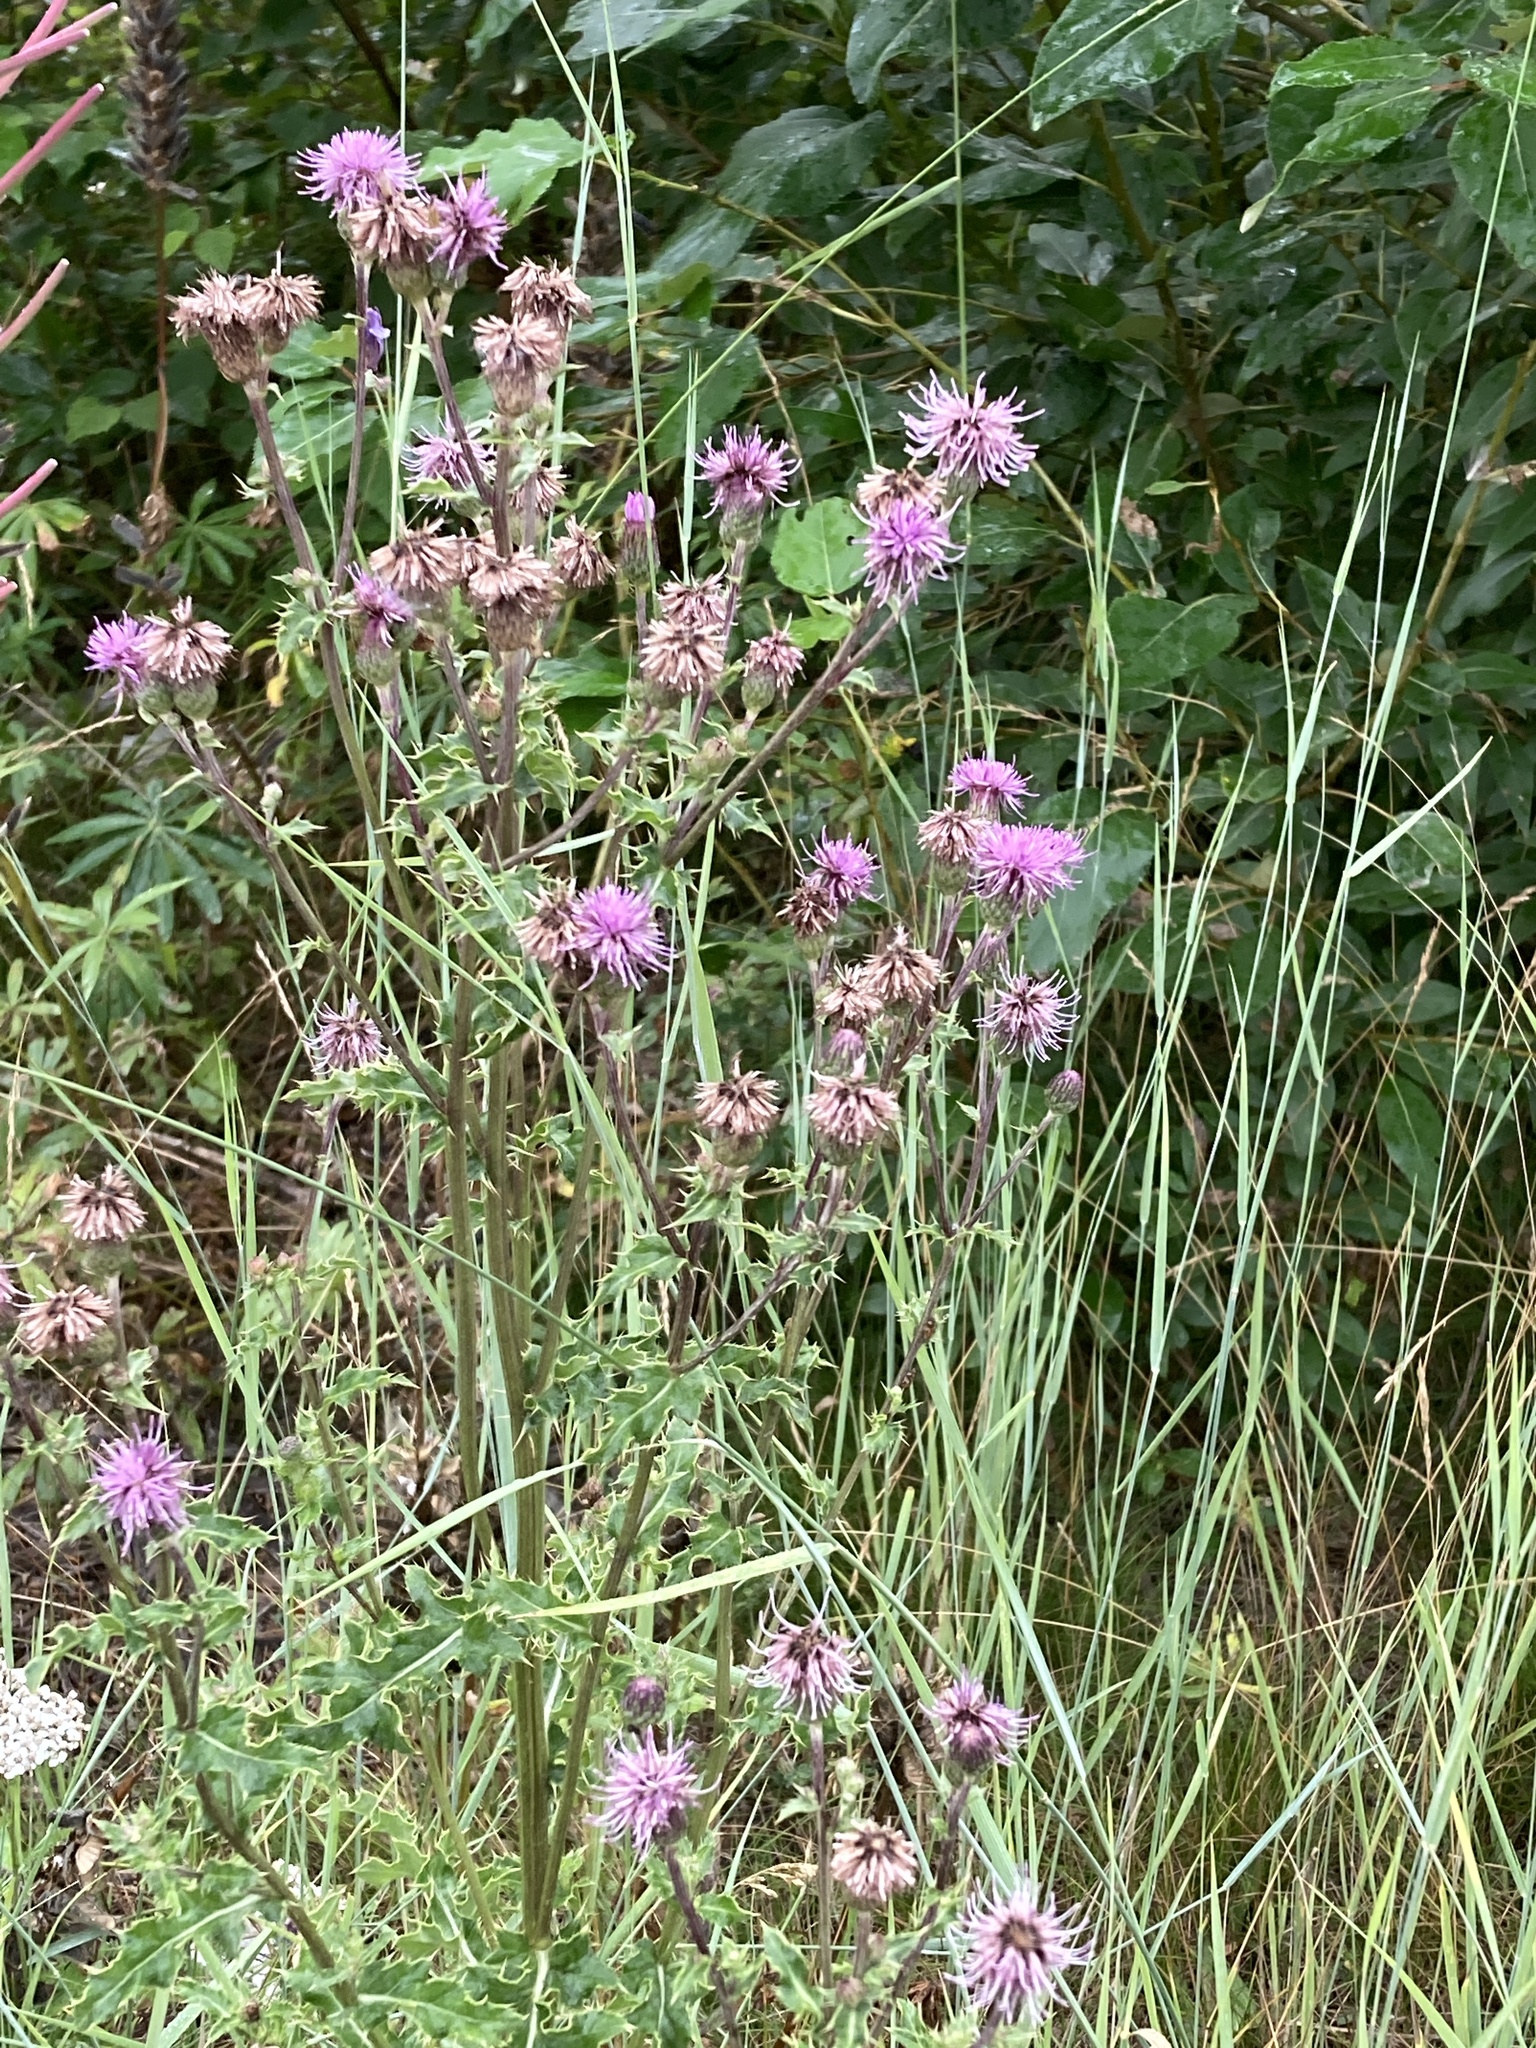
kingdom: Plantae
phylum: Tracheophyta
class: Magnoliopsida
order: Asterales
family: Asteraceae
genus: Cirsium
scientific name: Cirsium arvense
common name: Creeping thistle
